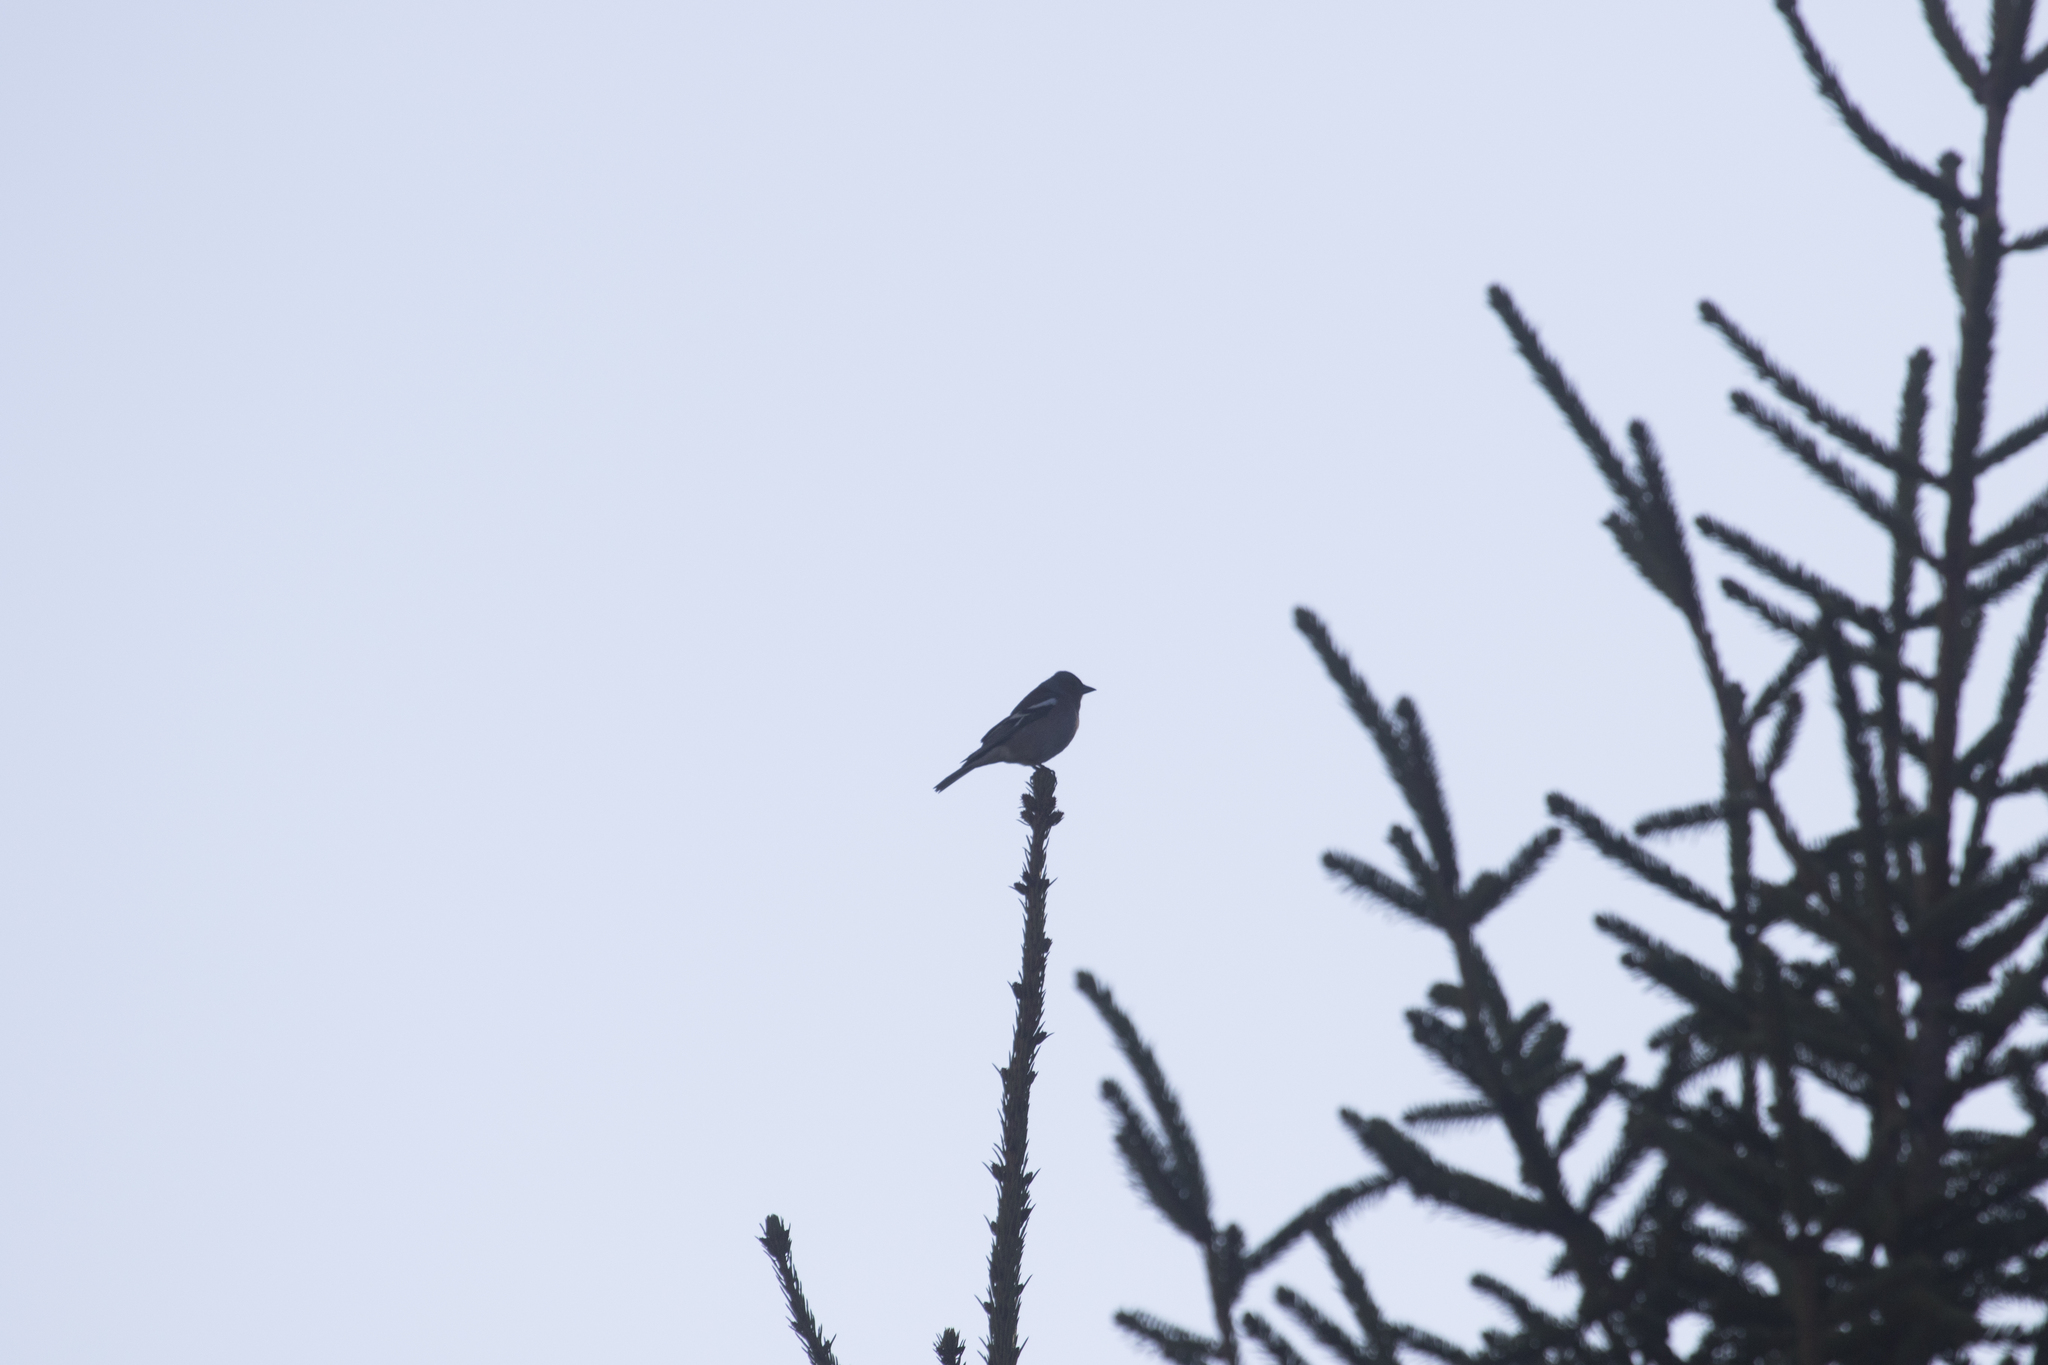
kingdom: Animalia
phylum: Chordata
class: Aves
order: Passeriformes
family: Fringillidae
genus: Fringilla
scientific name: Fringilla coelebs
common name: Common chaffinch
